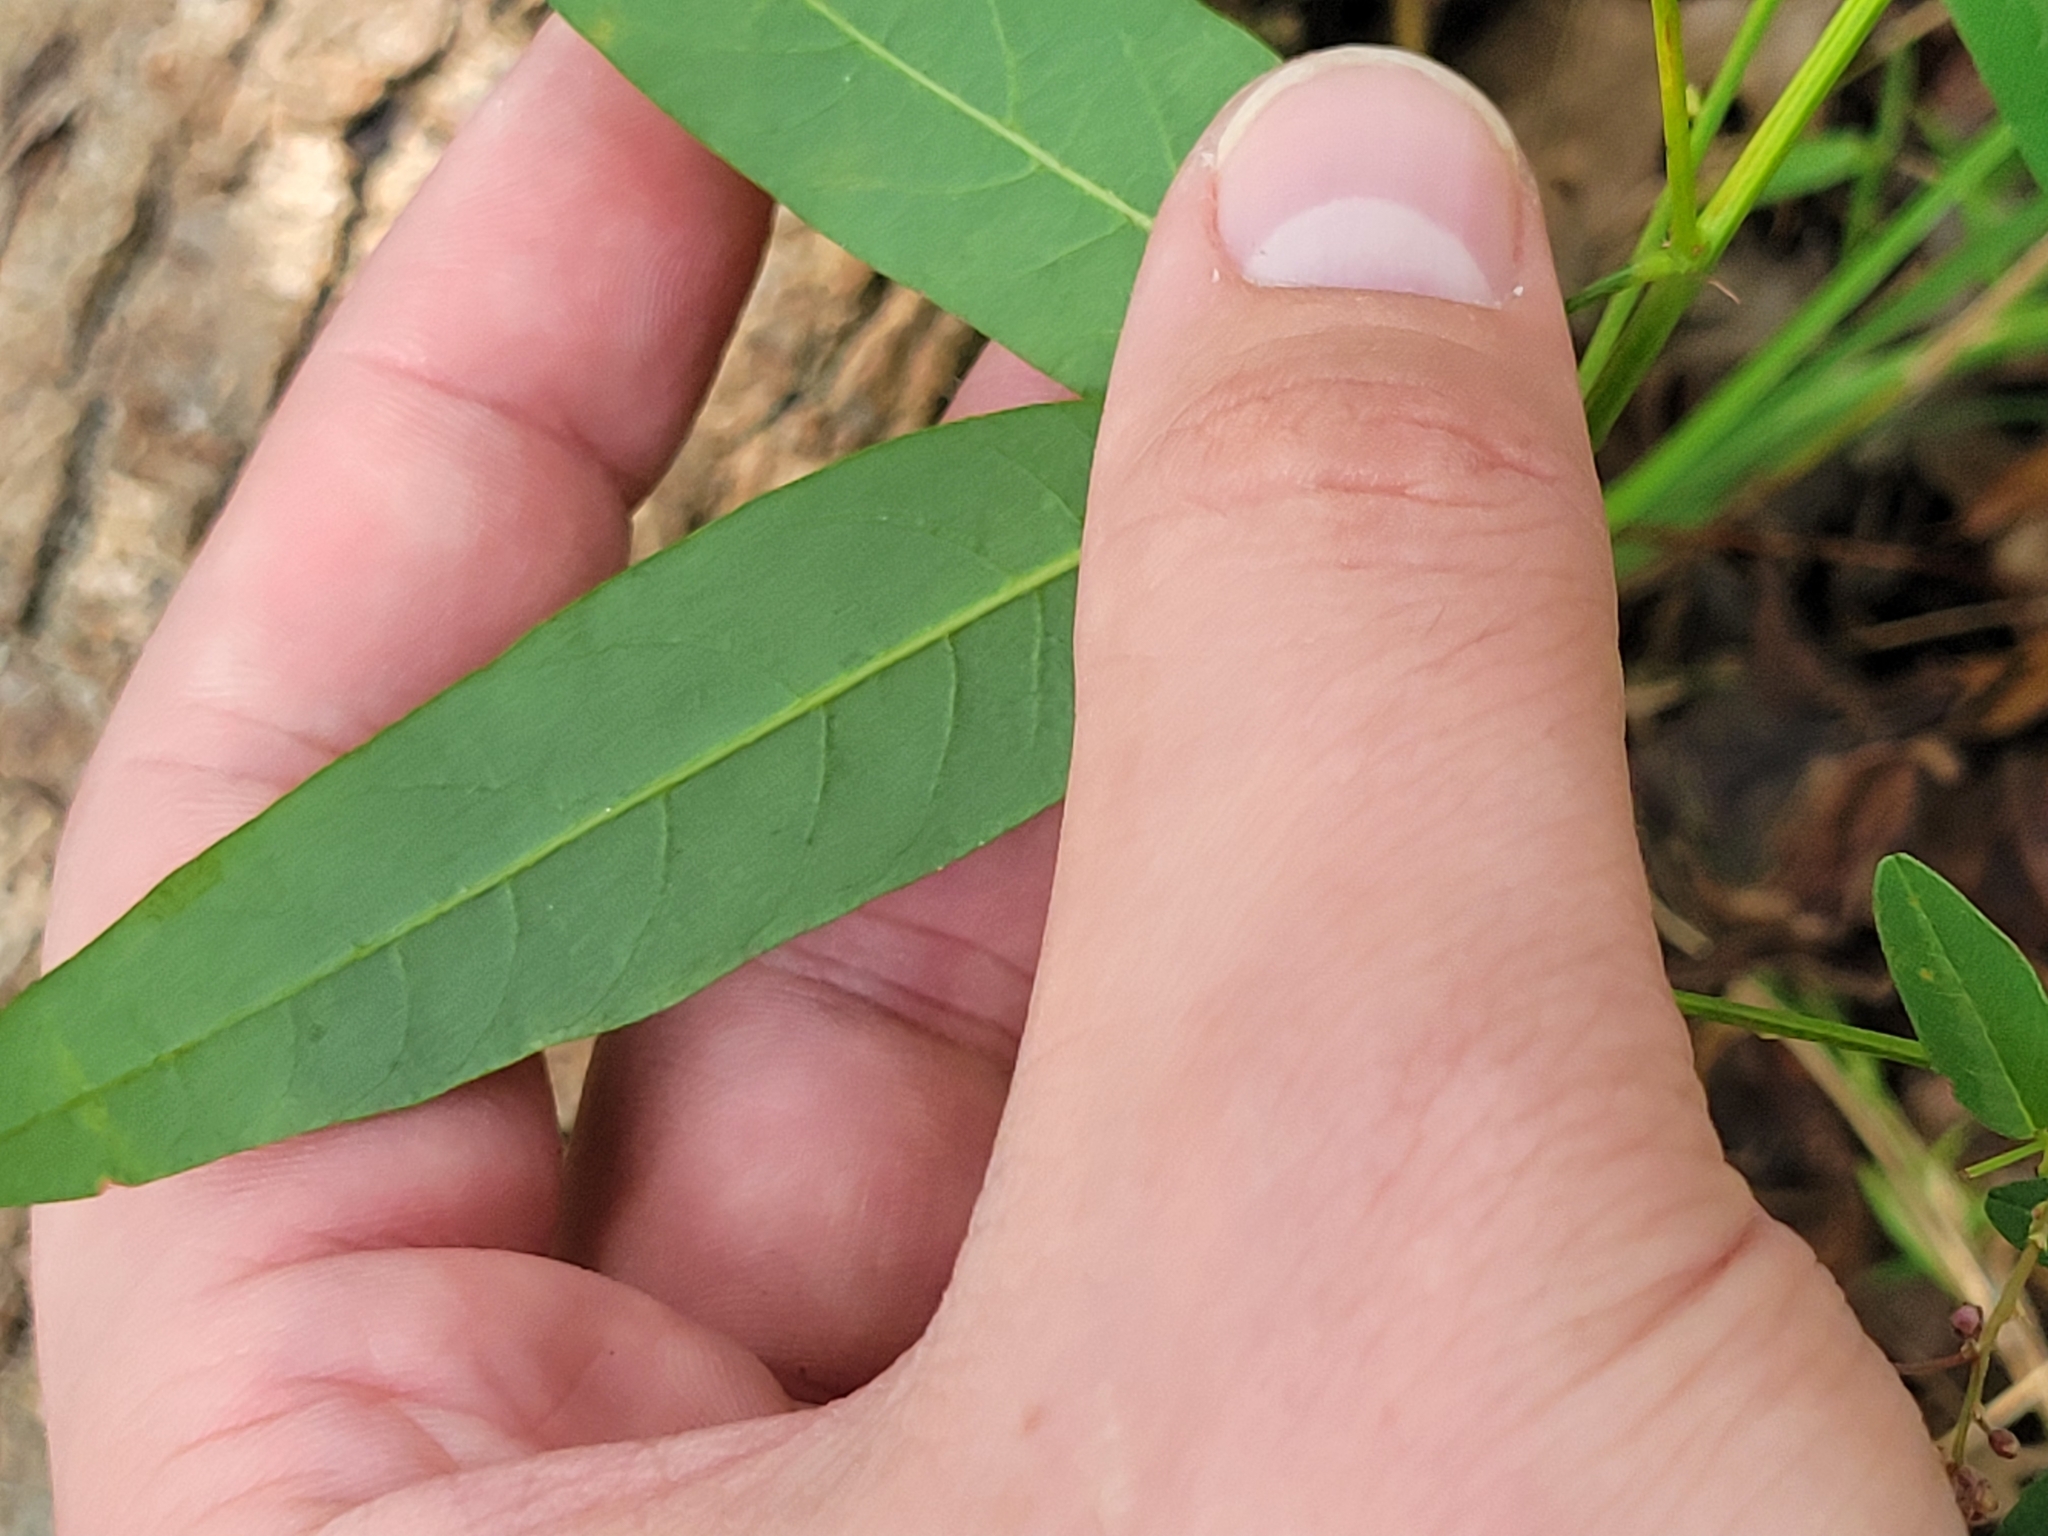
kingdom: Plantae
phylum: Tracheophyta
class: Magnoliopsida
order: Fabales
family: Fabaceae
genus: Desmodium
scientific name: Desmodium paniculatum
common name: Panicled tick-clover
